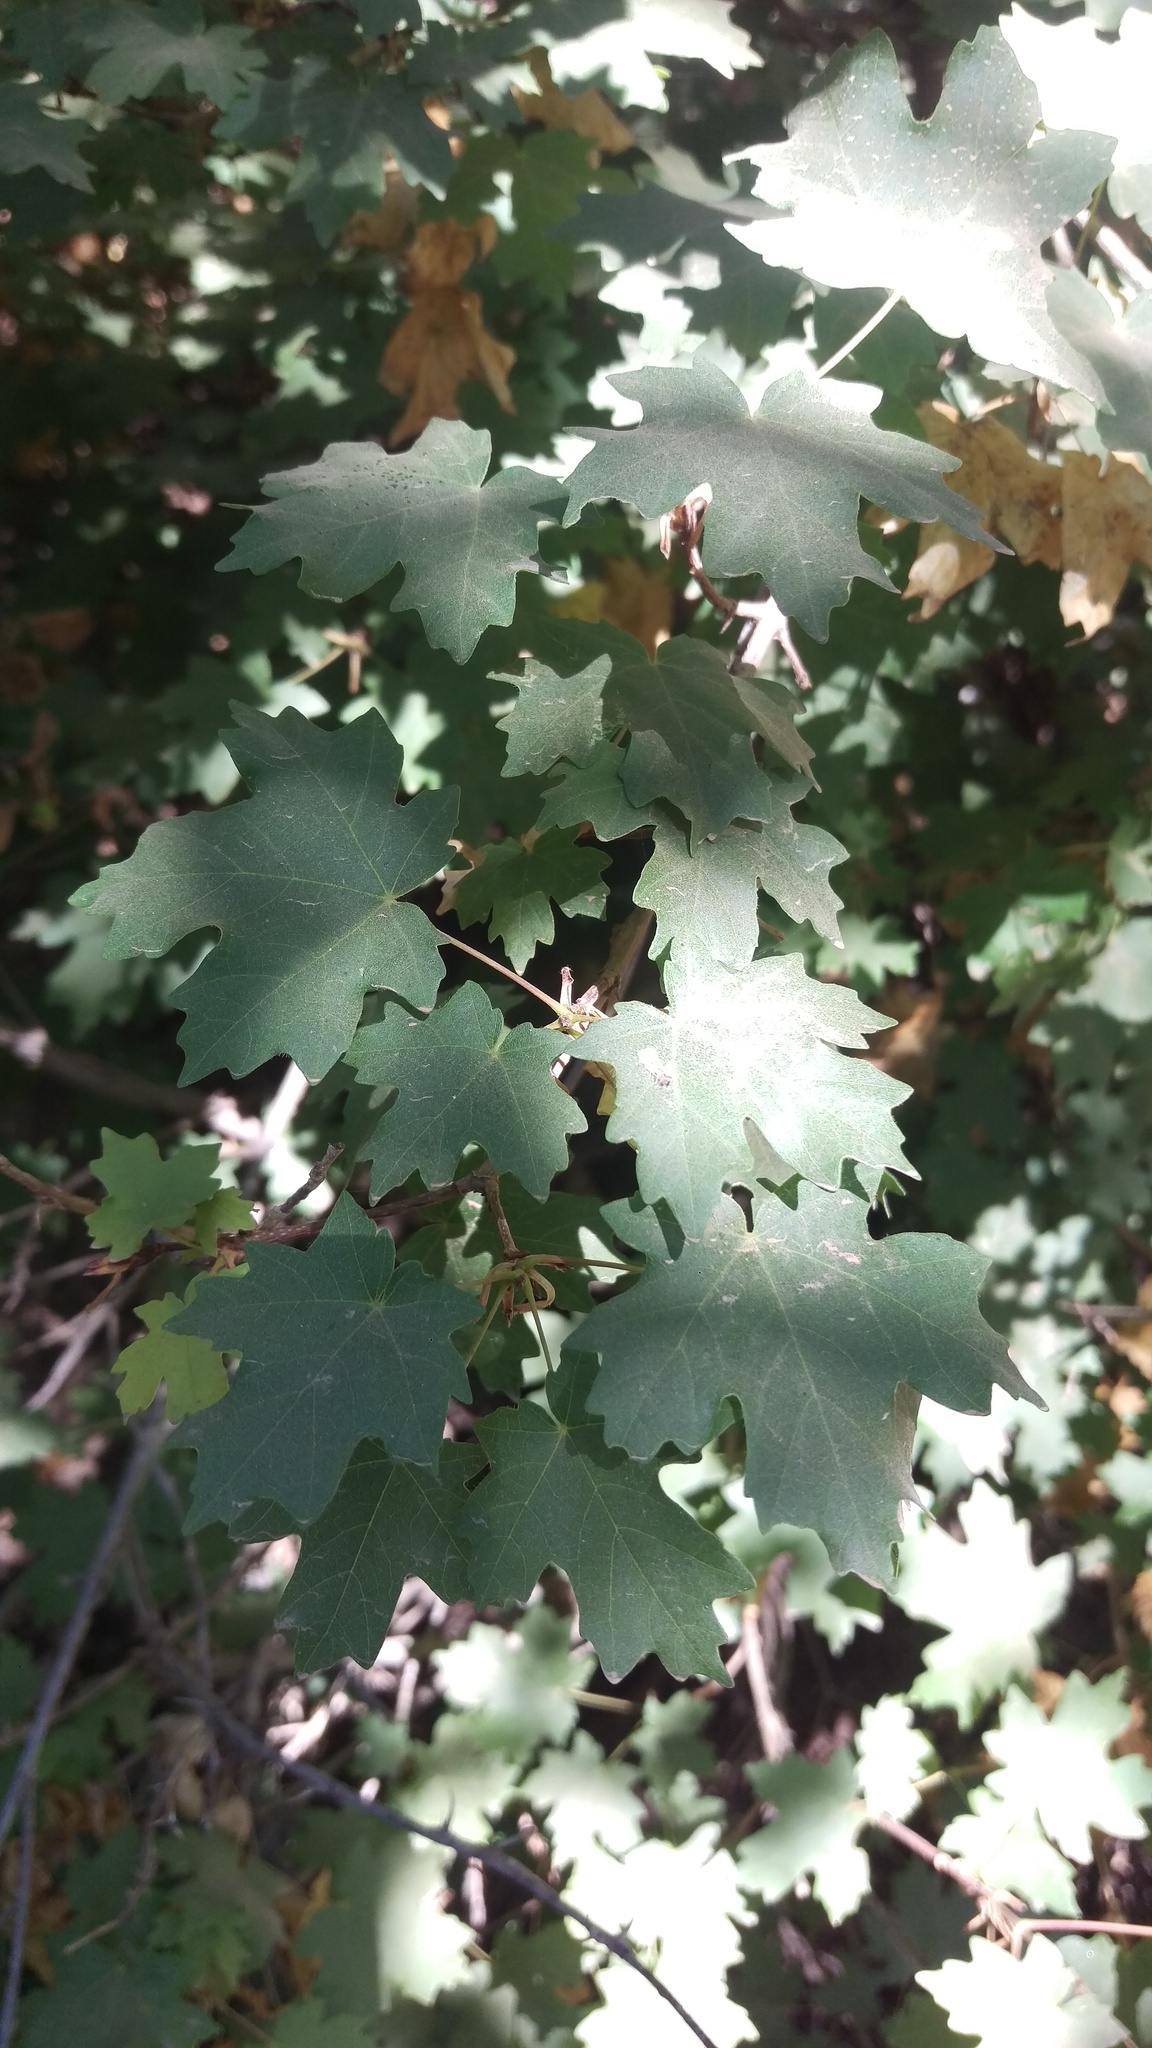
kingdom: Plantae
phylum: Tracheophyta
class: Magnoliopsida
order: Sapindales
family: Sapindaceae
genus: Acer
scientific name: Acer grandidentatum
